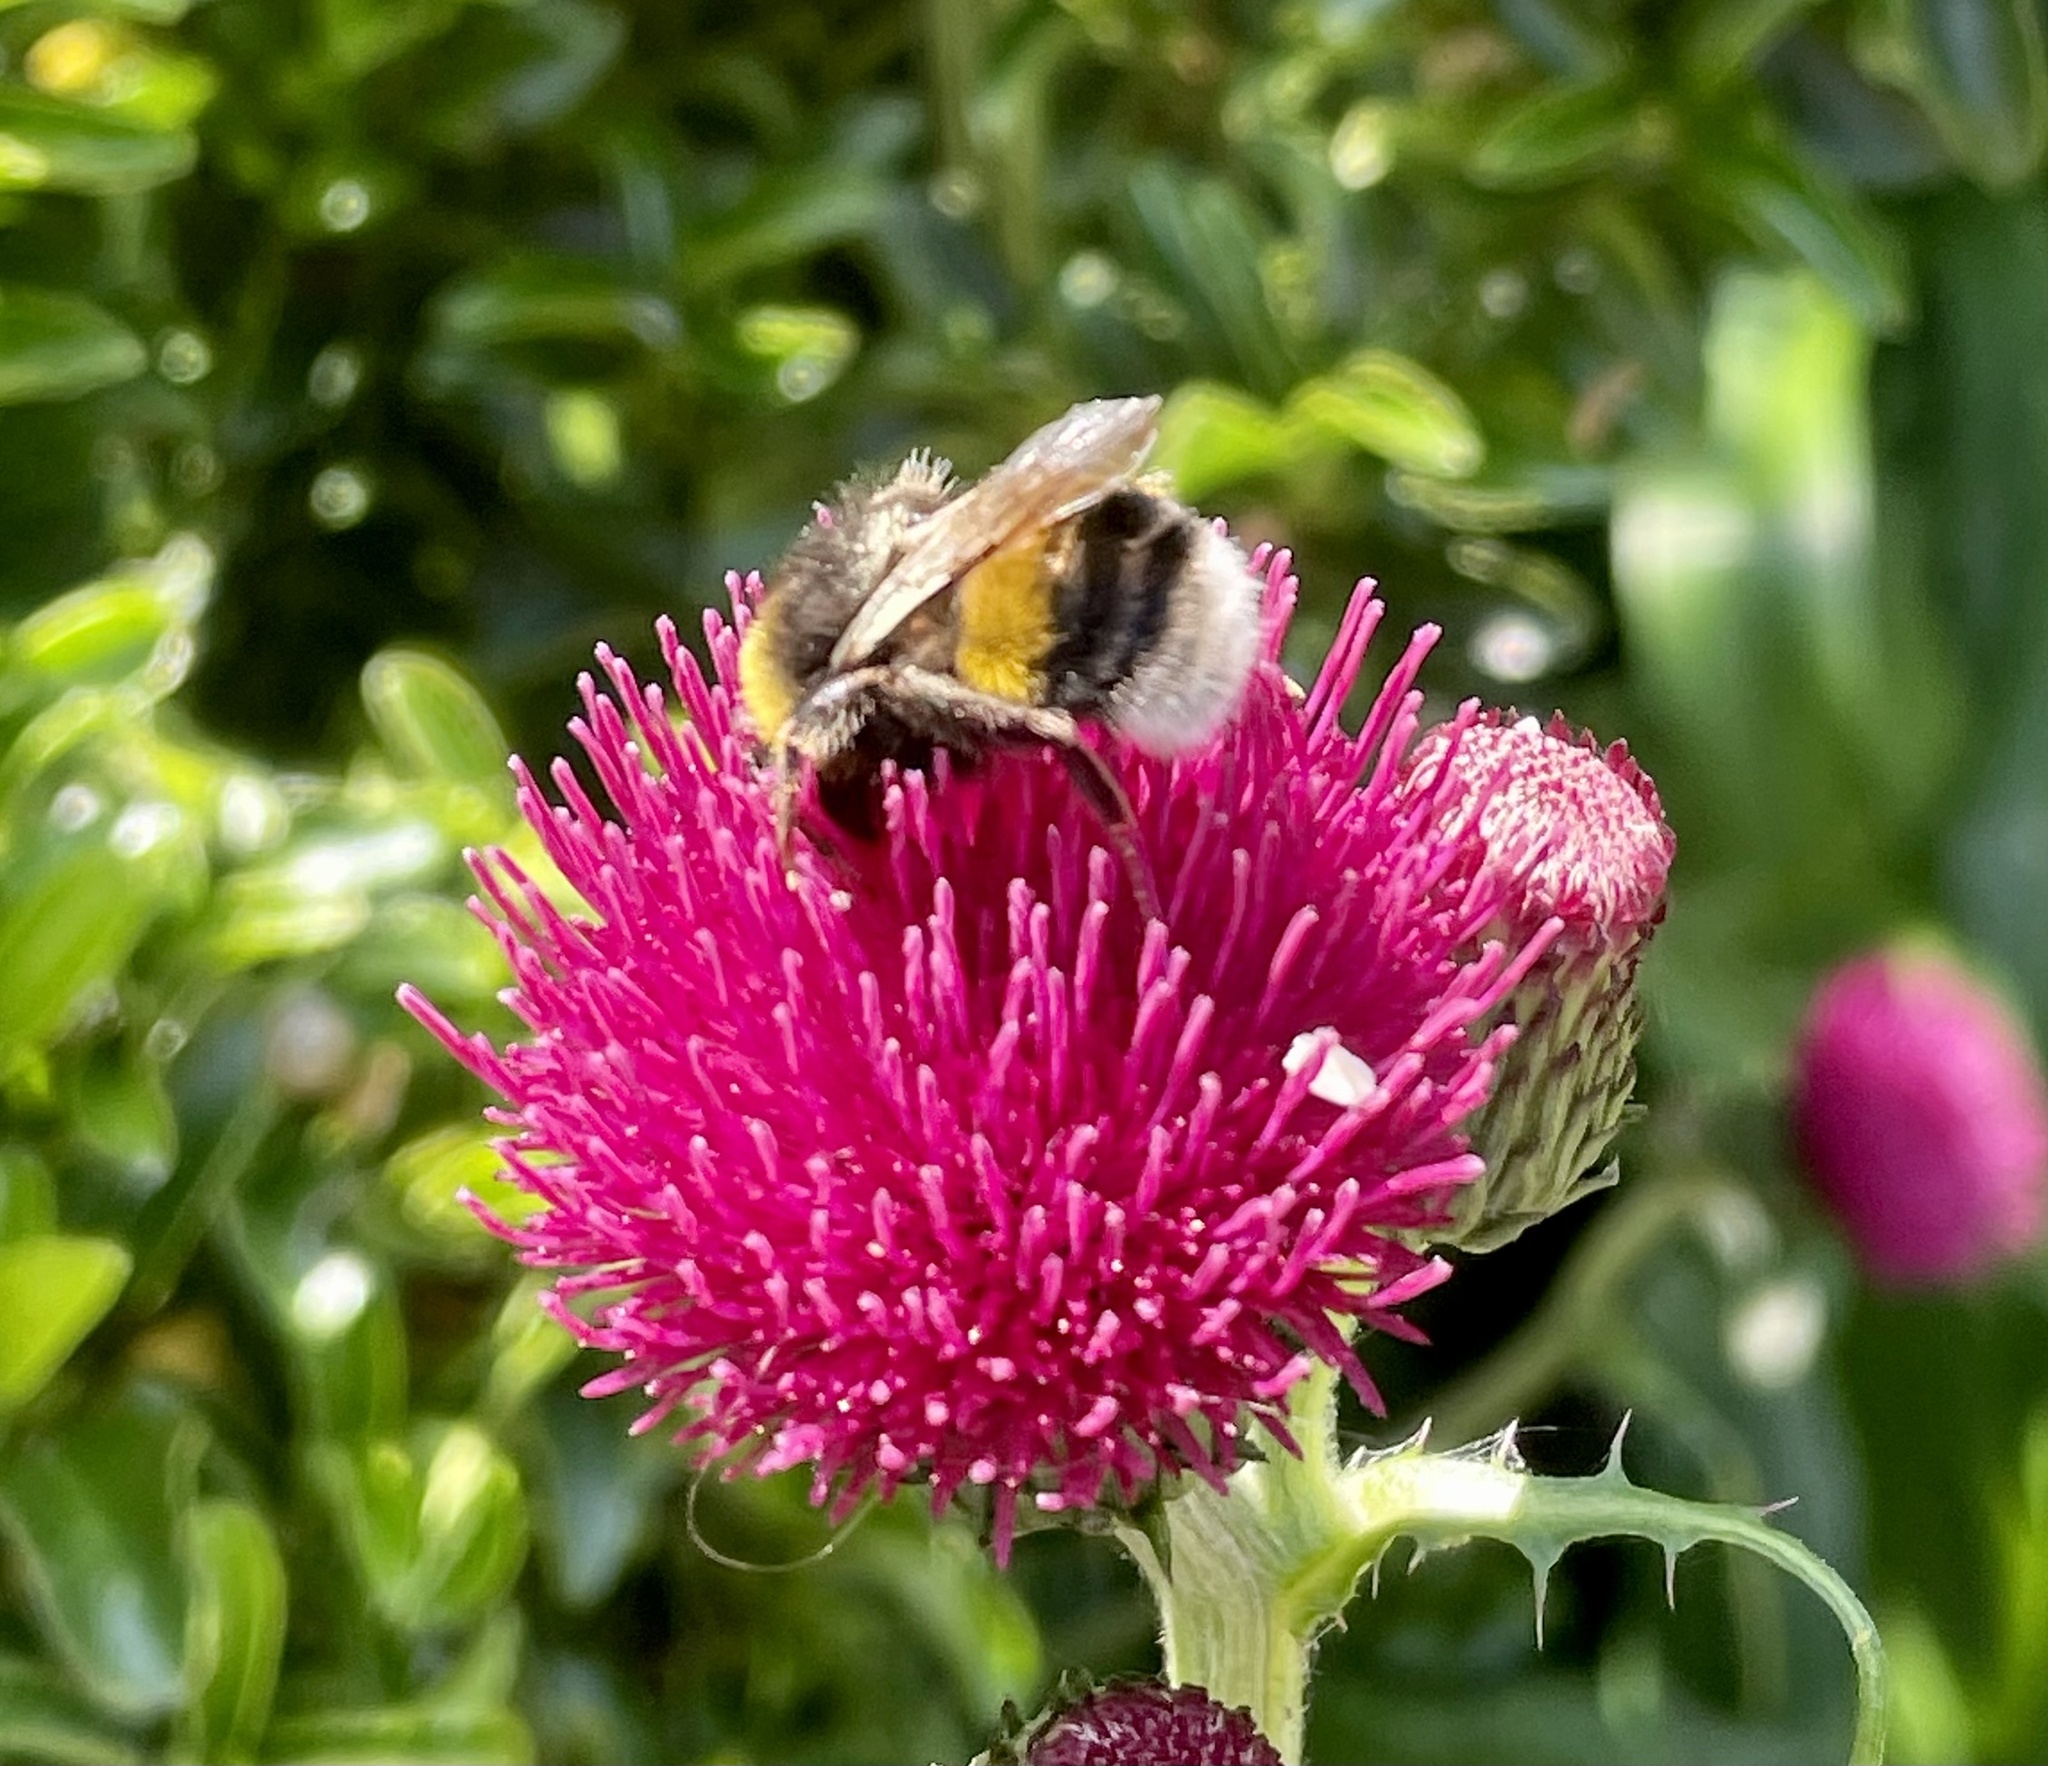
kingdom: Animalia
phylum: Arthropoda
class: Insecta
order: Hymenoptera
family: Apidae
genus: Bombus
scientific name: Bombus terrestris
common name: Buff-tailed bumblebee
